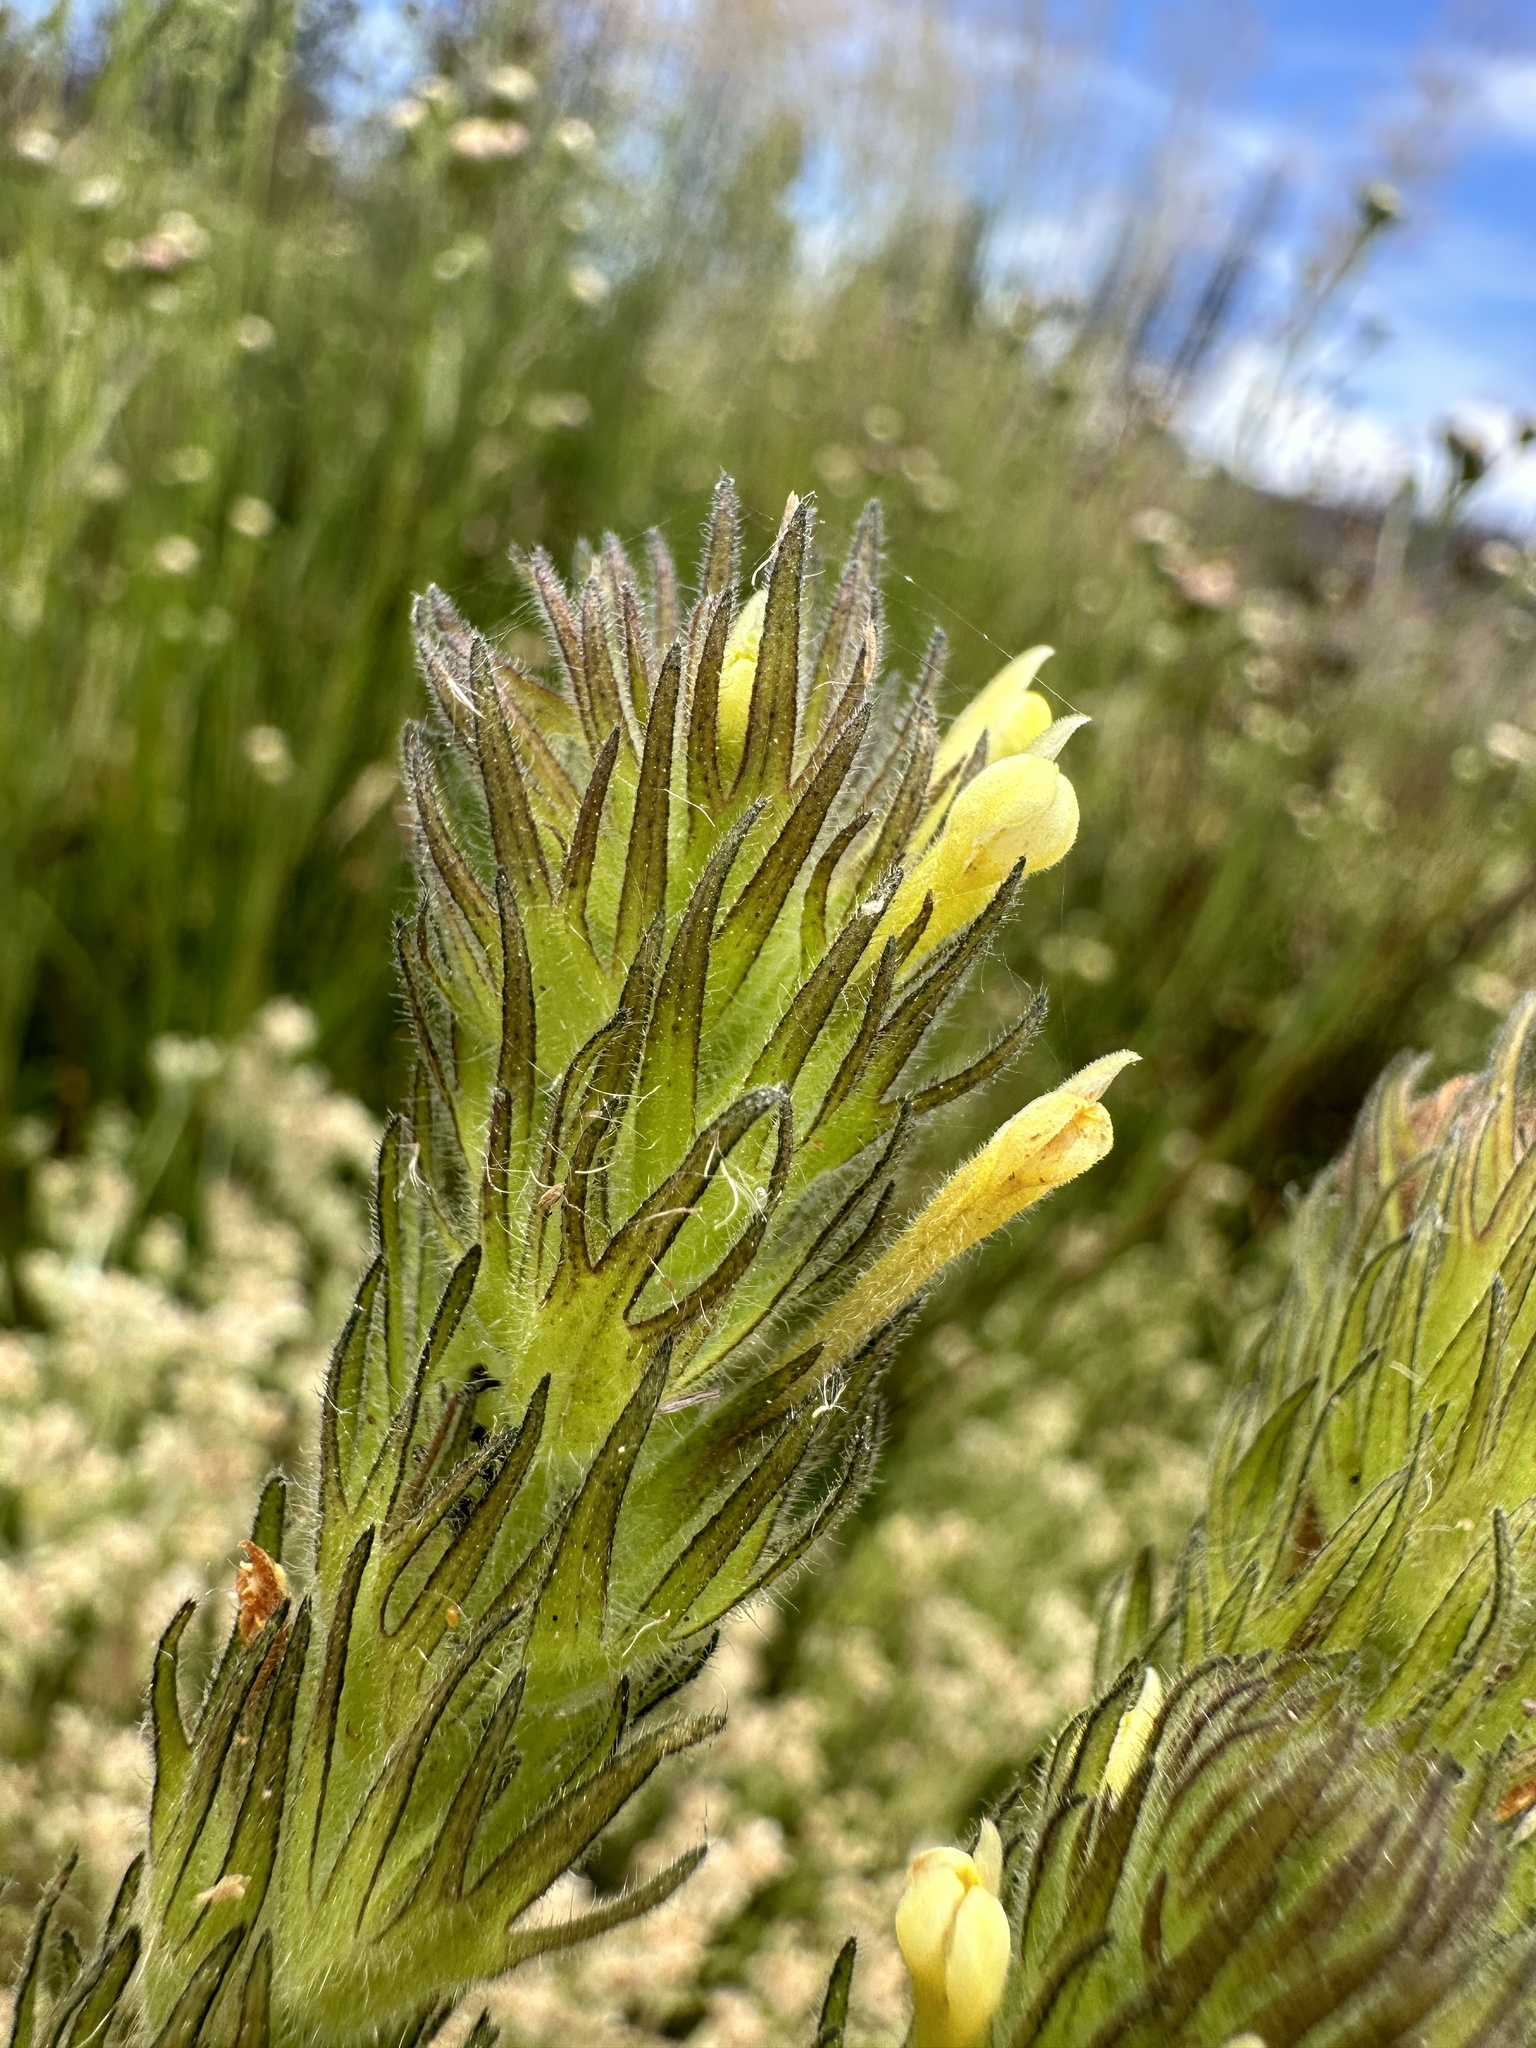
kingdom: Plantae
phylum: Tracheophyta
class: Magnoliopsida
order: Lamiales
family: Orobanchaceae
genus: Castilleja
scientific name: Castilleja tenuis
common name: Hairy indian paintbrush
